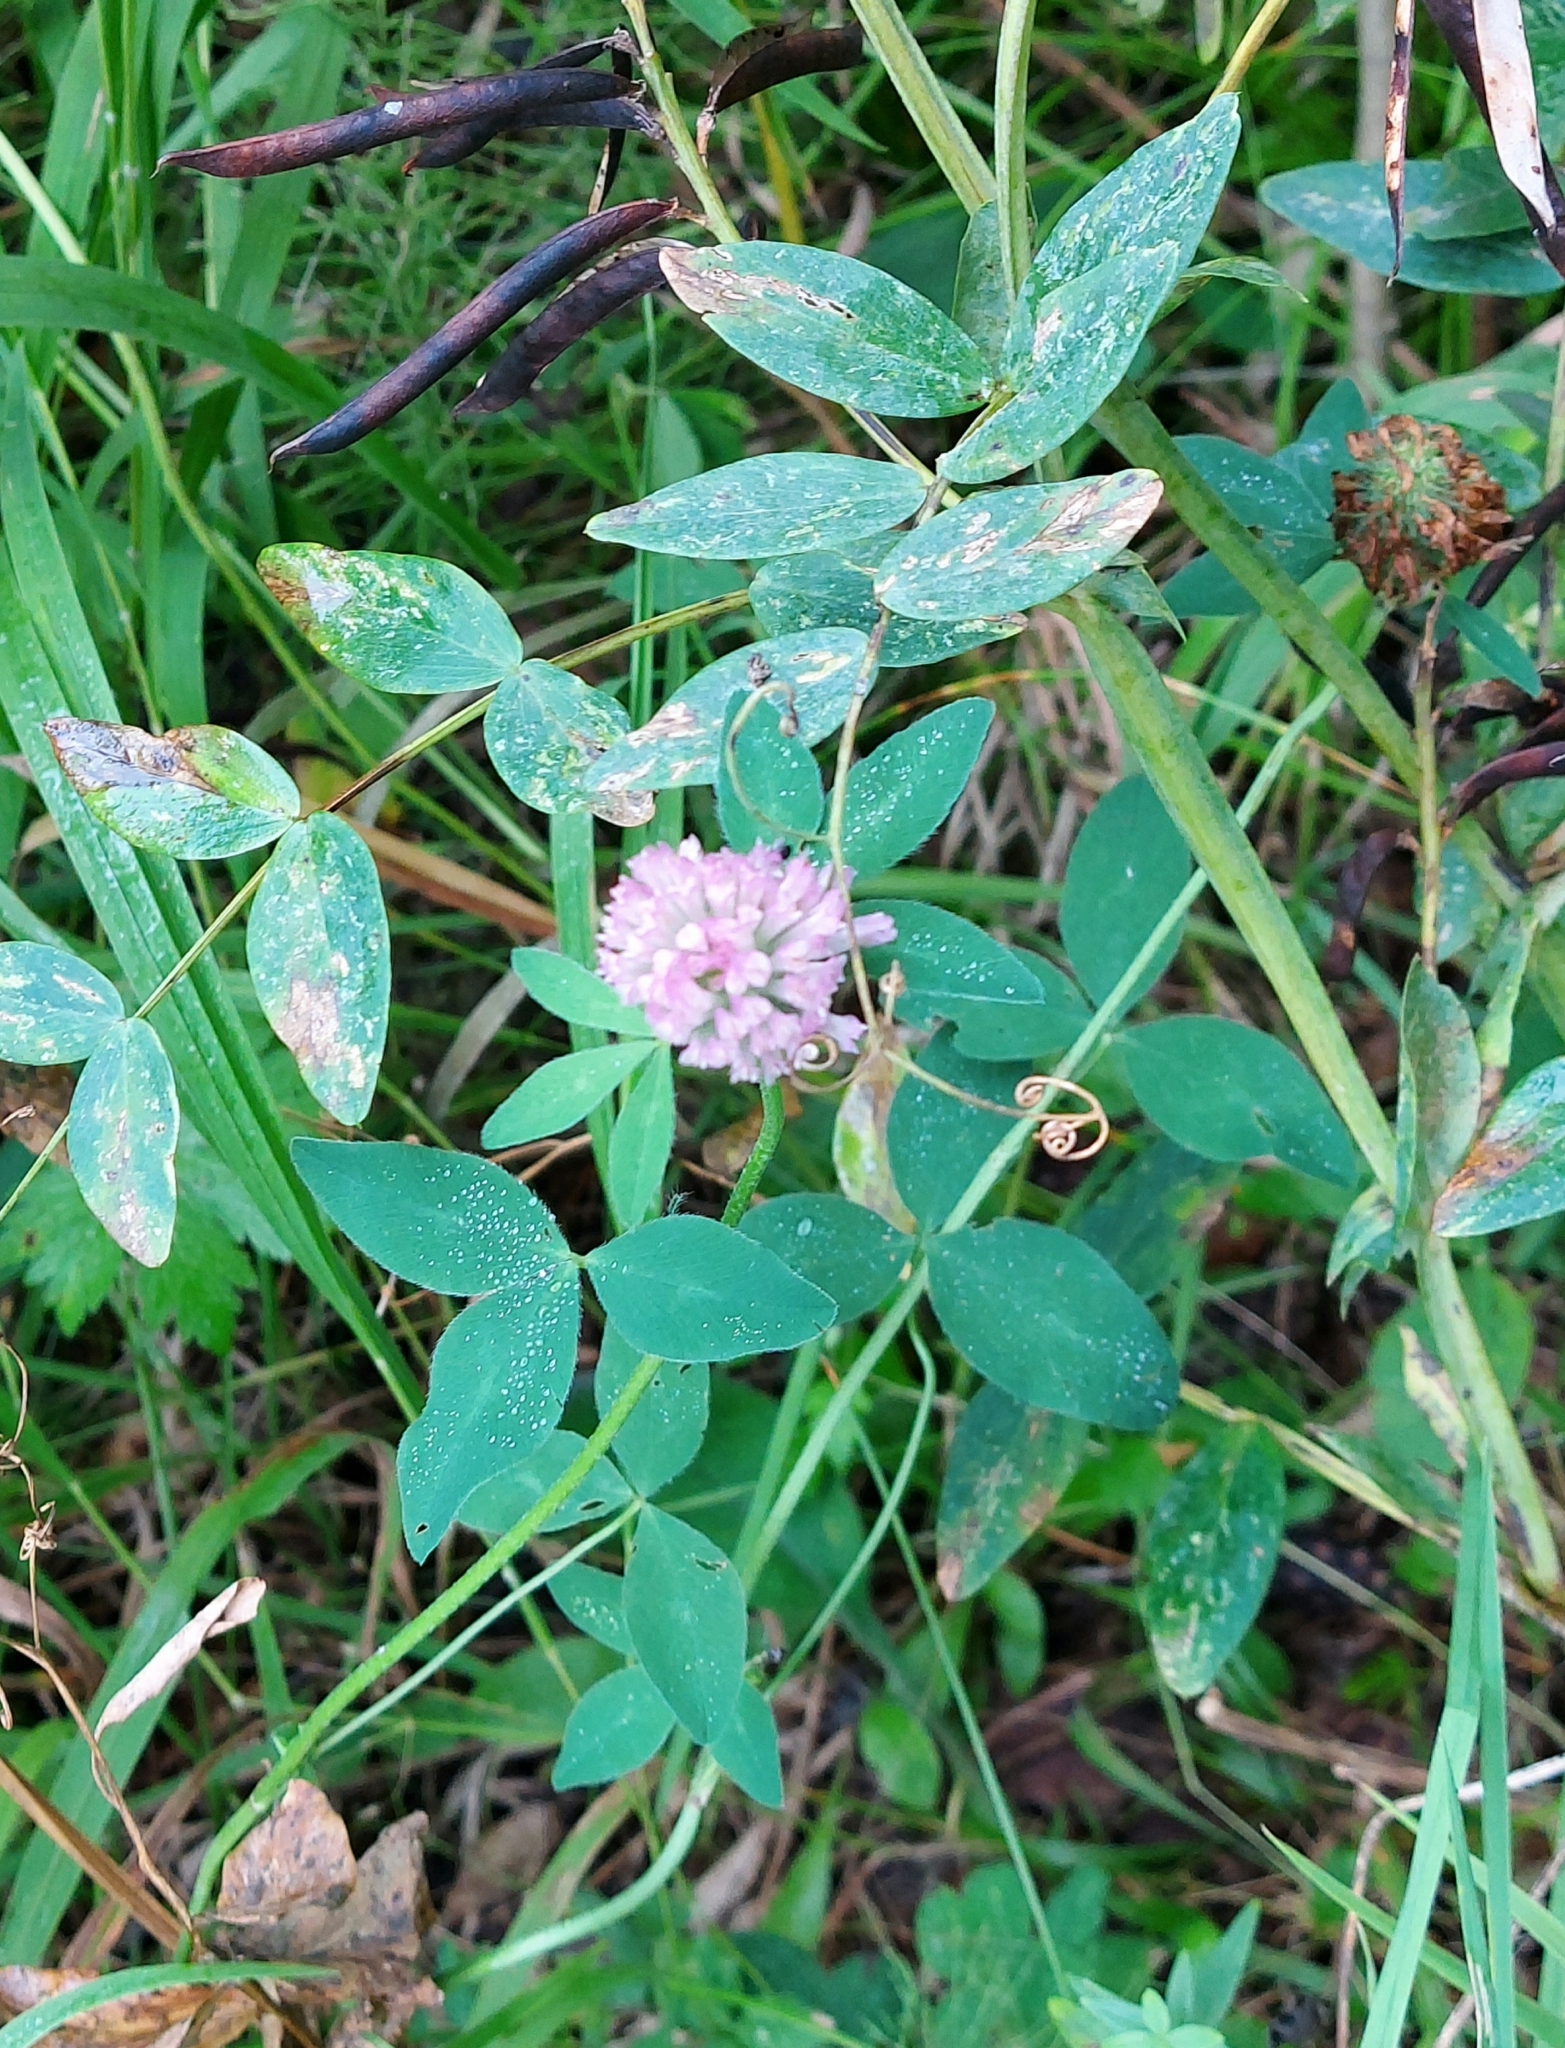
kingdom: Plantae
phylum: Tracheophyta
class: Magnoliopsida
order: Fabales
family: Fabaceae
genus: Trifolium
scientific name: Trifolium pratense
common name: Red clover
